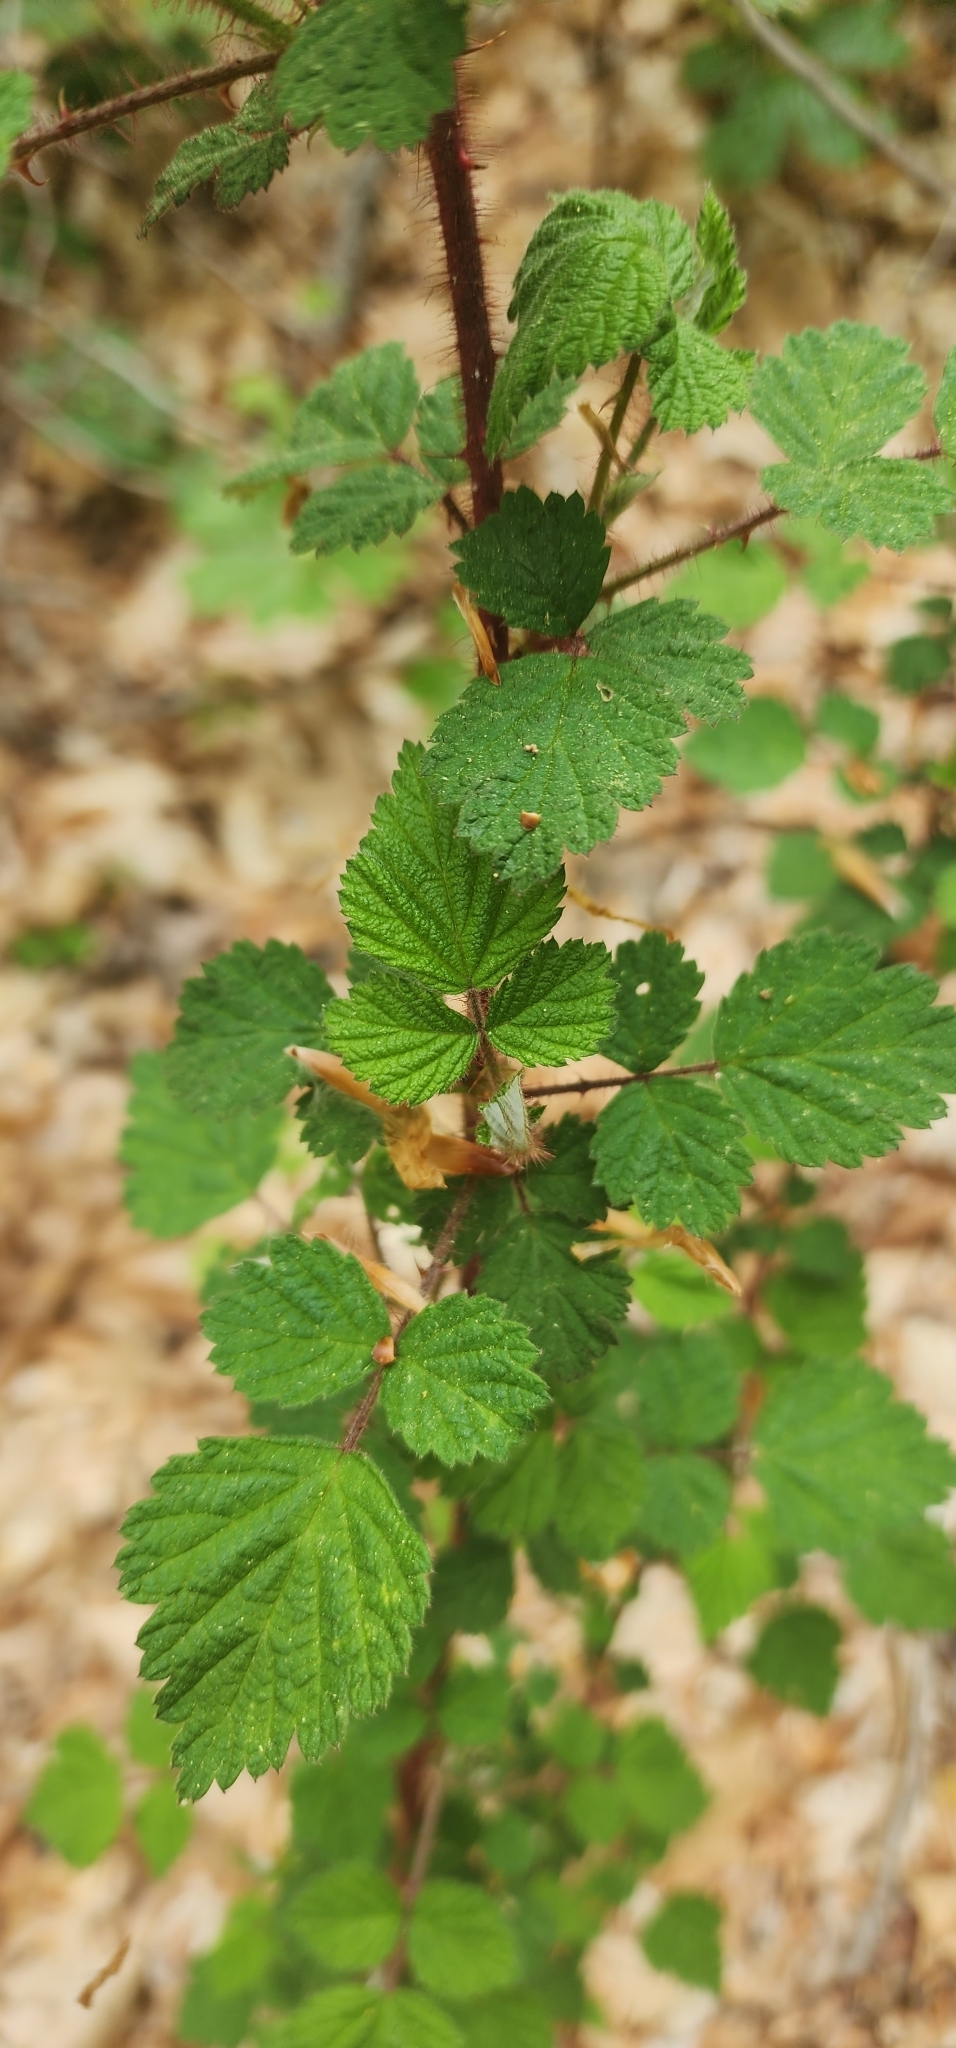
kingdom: Plantae
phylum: Tracheophyta
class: Magnoliopsida
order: Rosales
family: Rosaceae
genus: Rubus
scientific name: Rubus phoenicolasius
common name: Japanese wineberry
